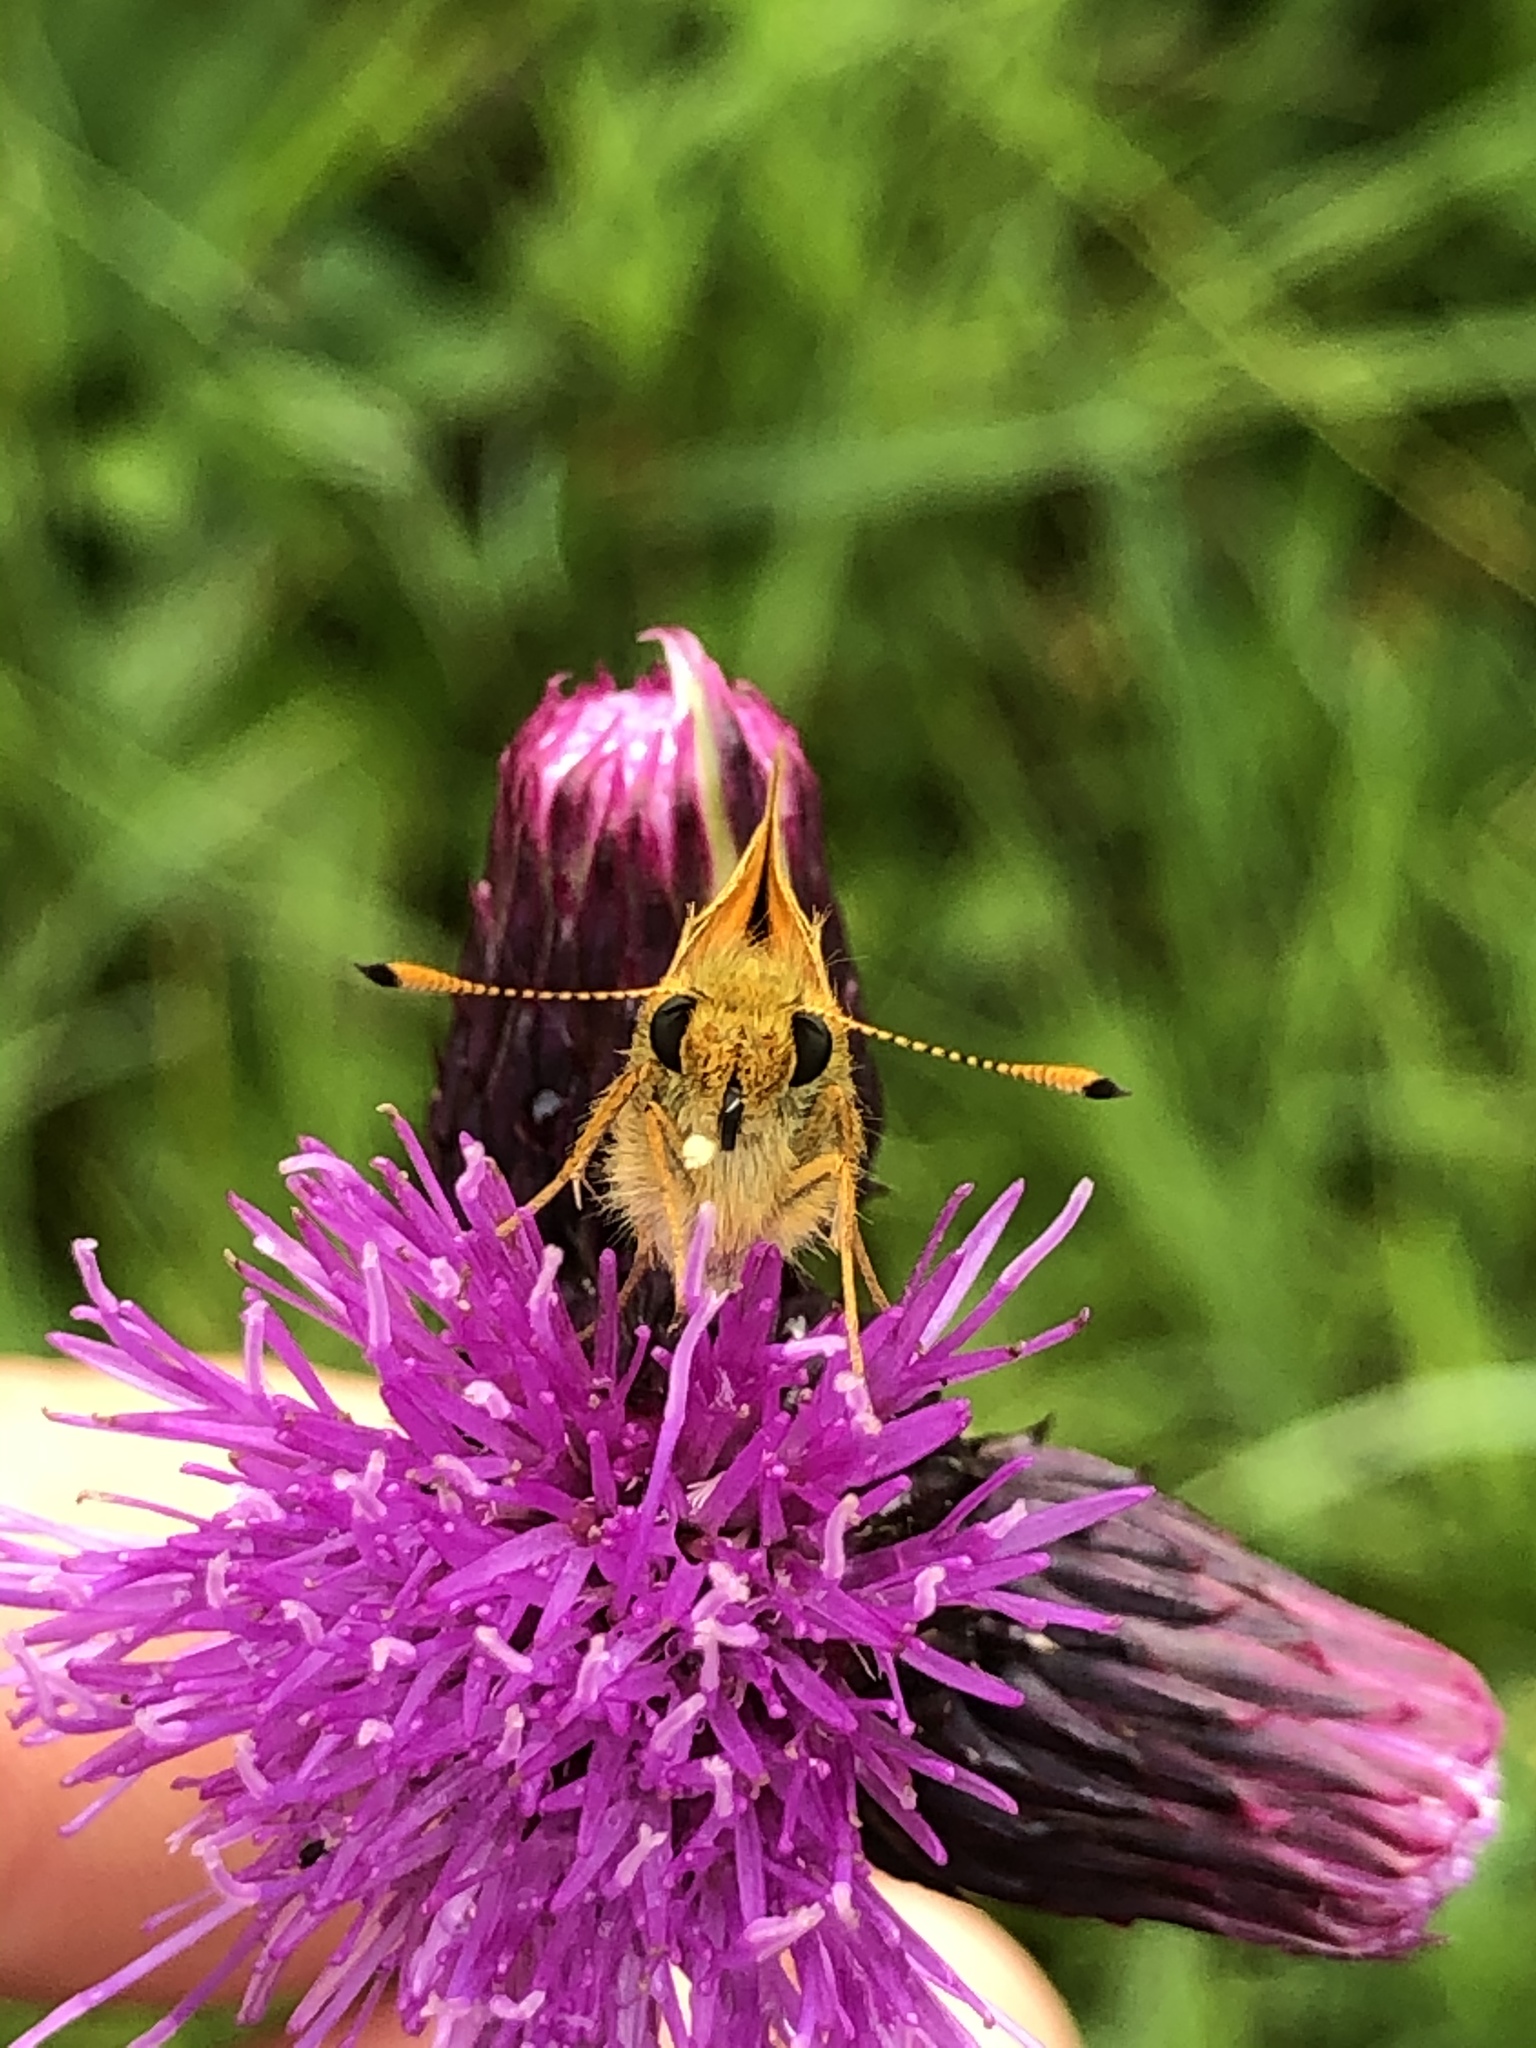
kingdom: Animalia
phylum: Arthropoda
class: Insecta
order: Lepidoptera
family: Hesperiidae
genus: Ochlodes
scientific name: Ochlodes venata
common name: Large skipper
